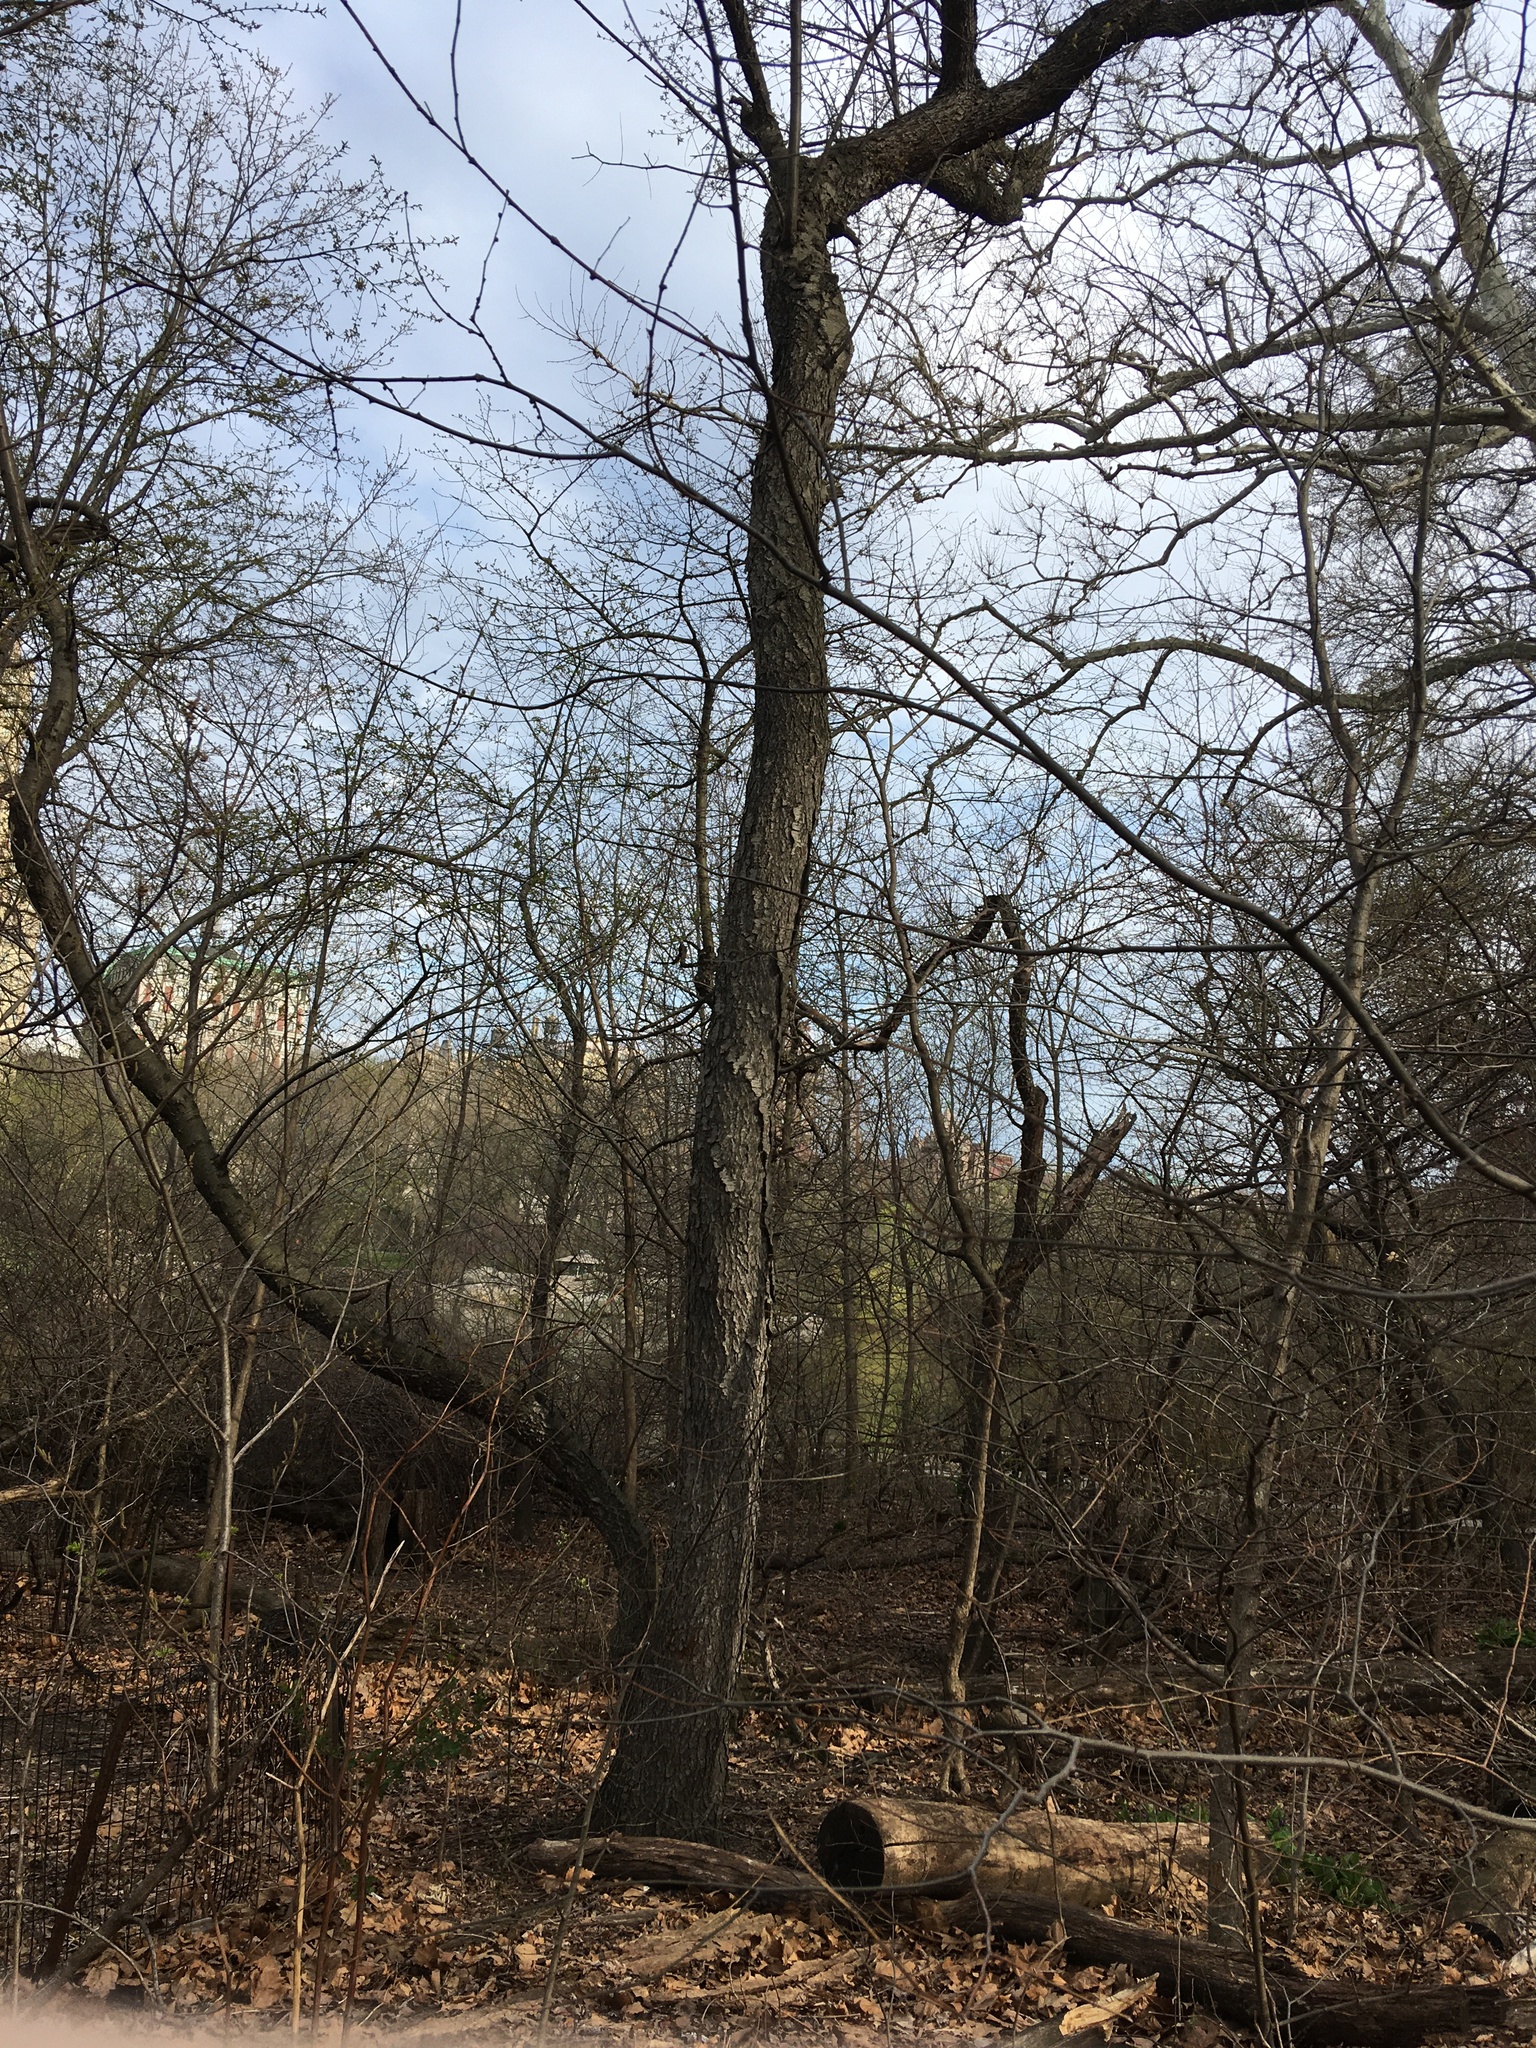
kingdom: Plantae
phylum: Tracheophyta
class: Magnoliopsida
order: Rosales
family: Rosaceae
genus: Prunus
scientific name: Prunus serotina
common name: Black cherry
